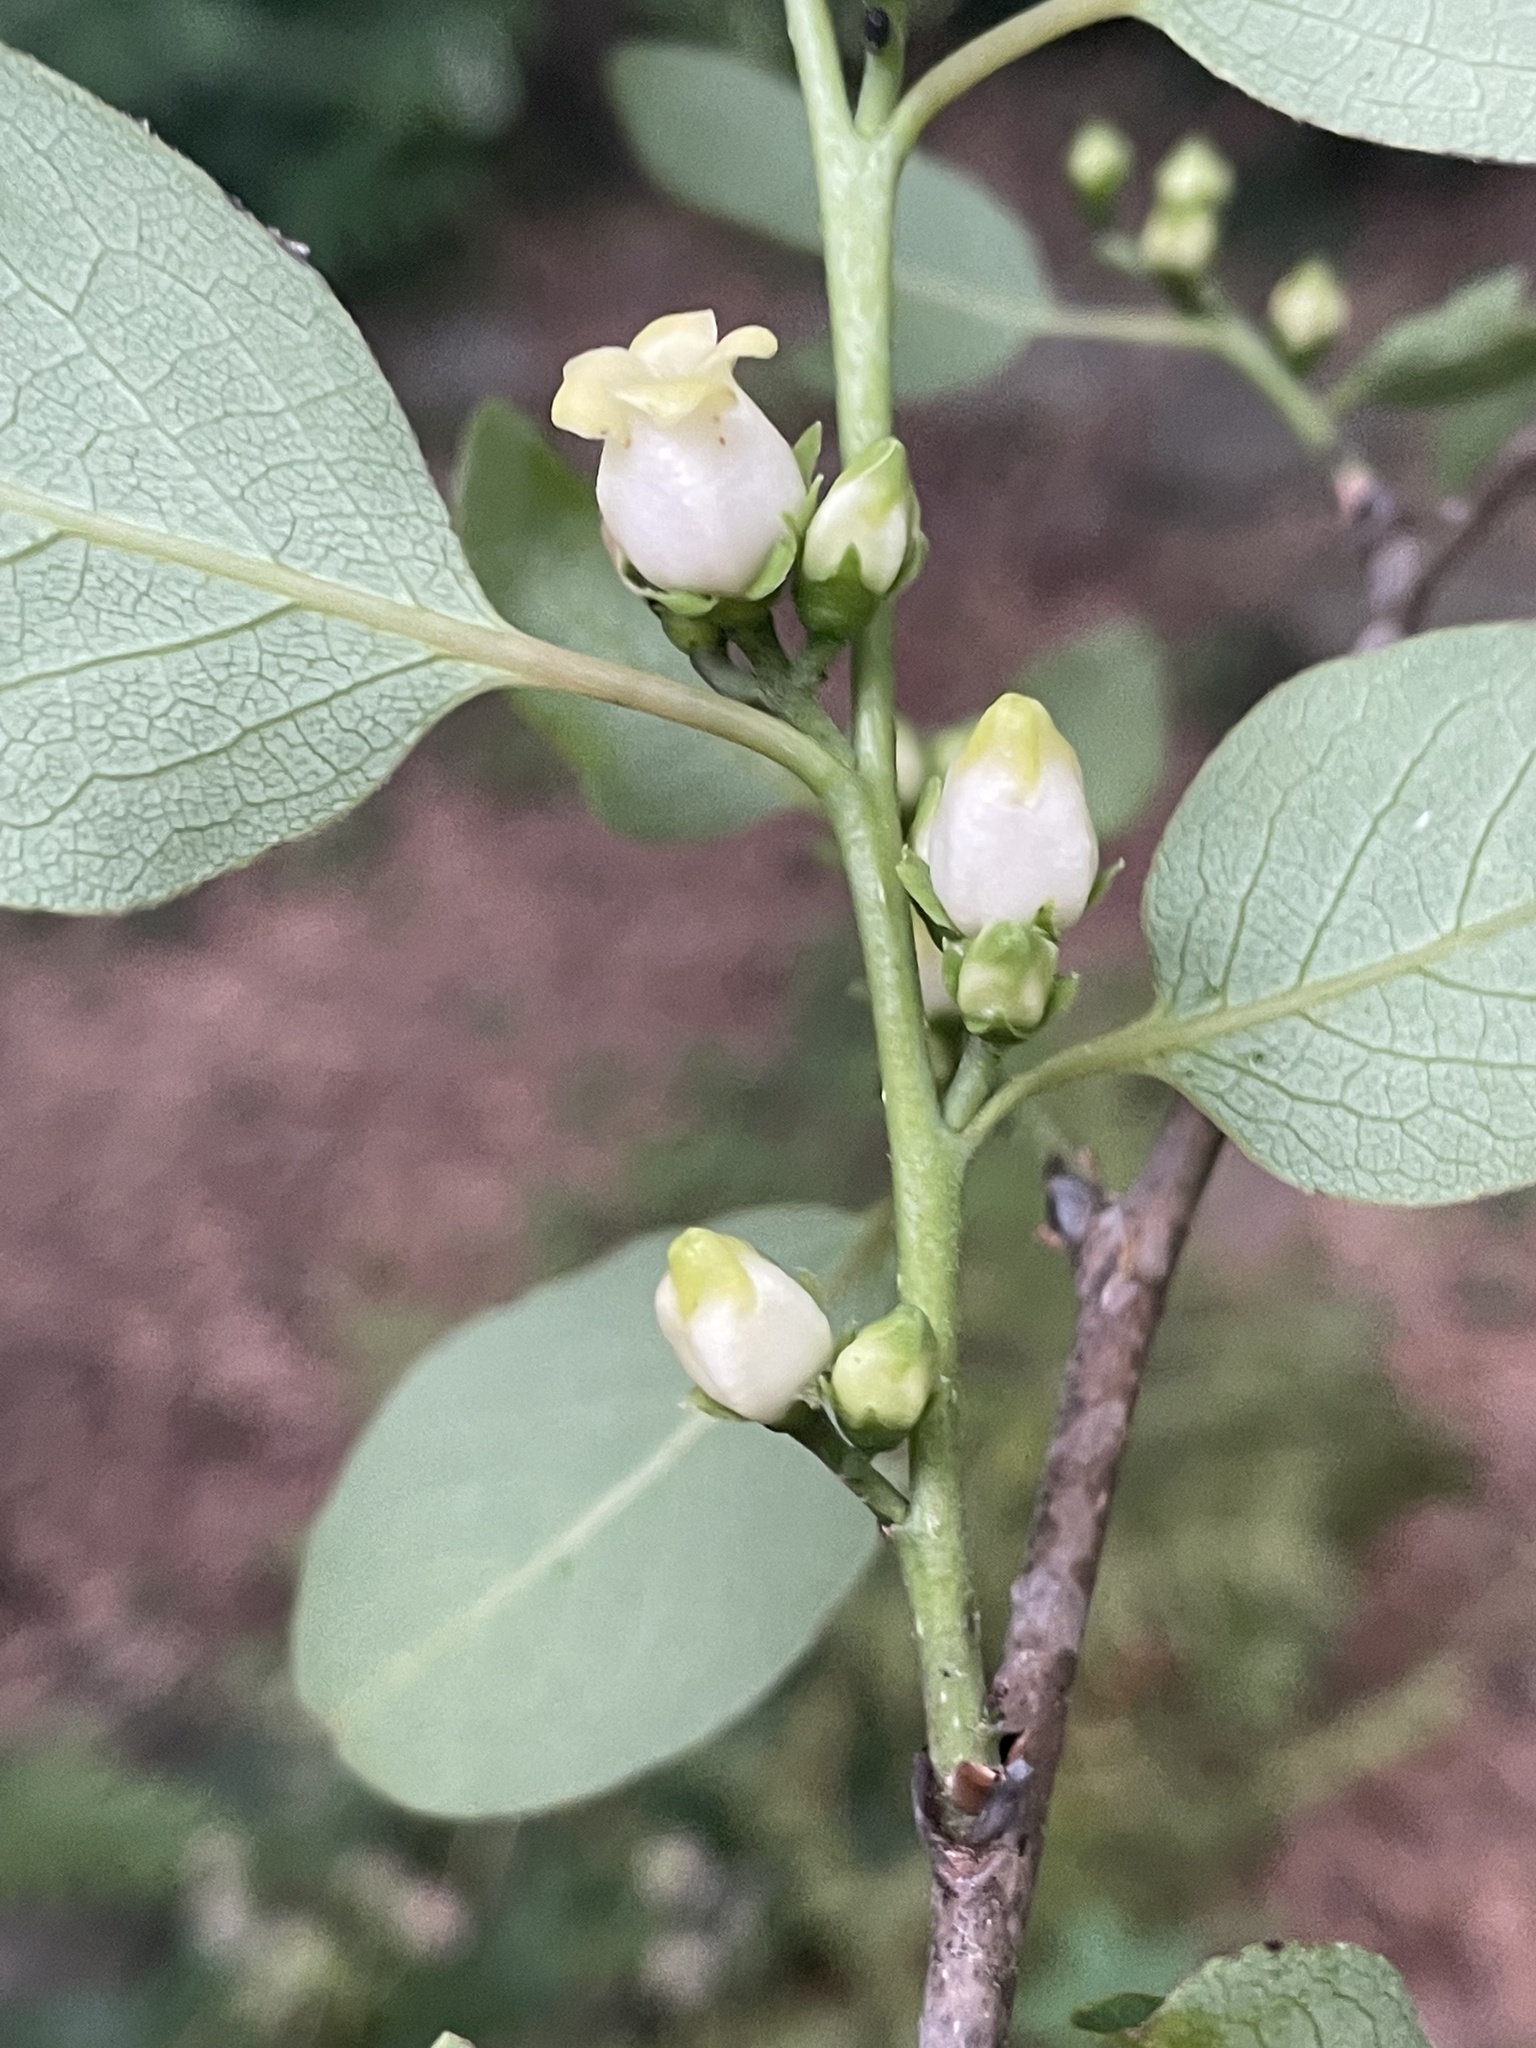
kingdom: Plantae
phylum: Tracheophyta
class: Magnoliopsida
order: Ericales
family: Ebenaceae
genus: Diospyros
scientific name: Diospyros virginiana
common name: Persimmon
